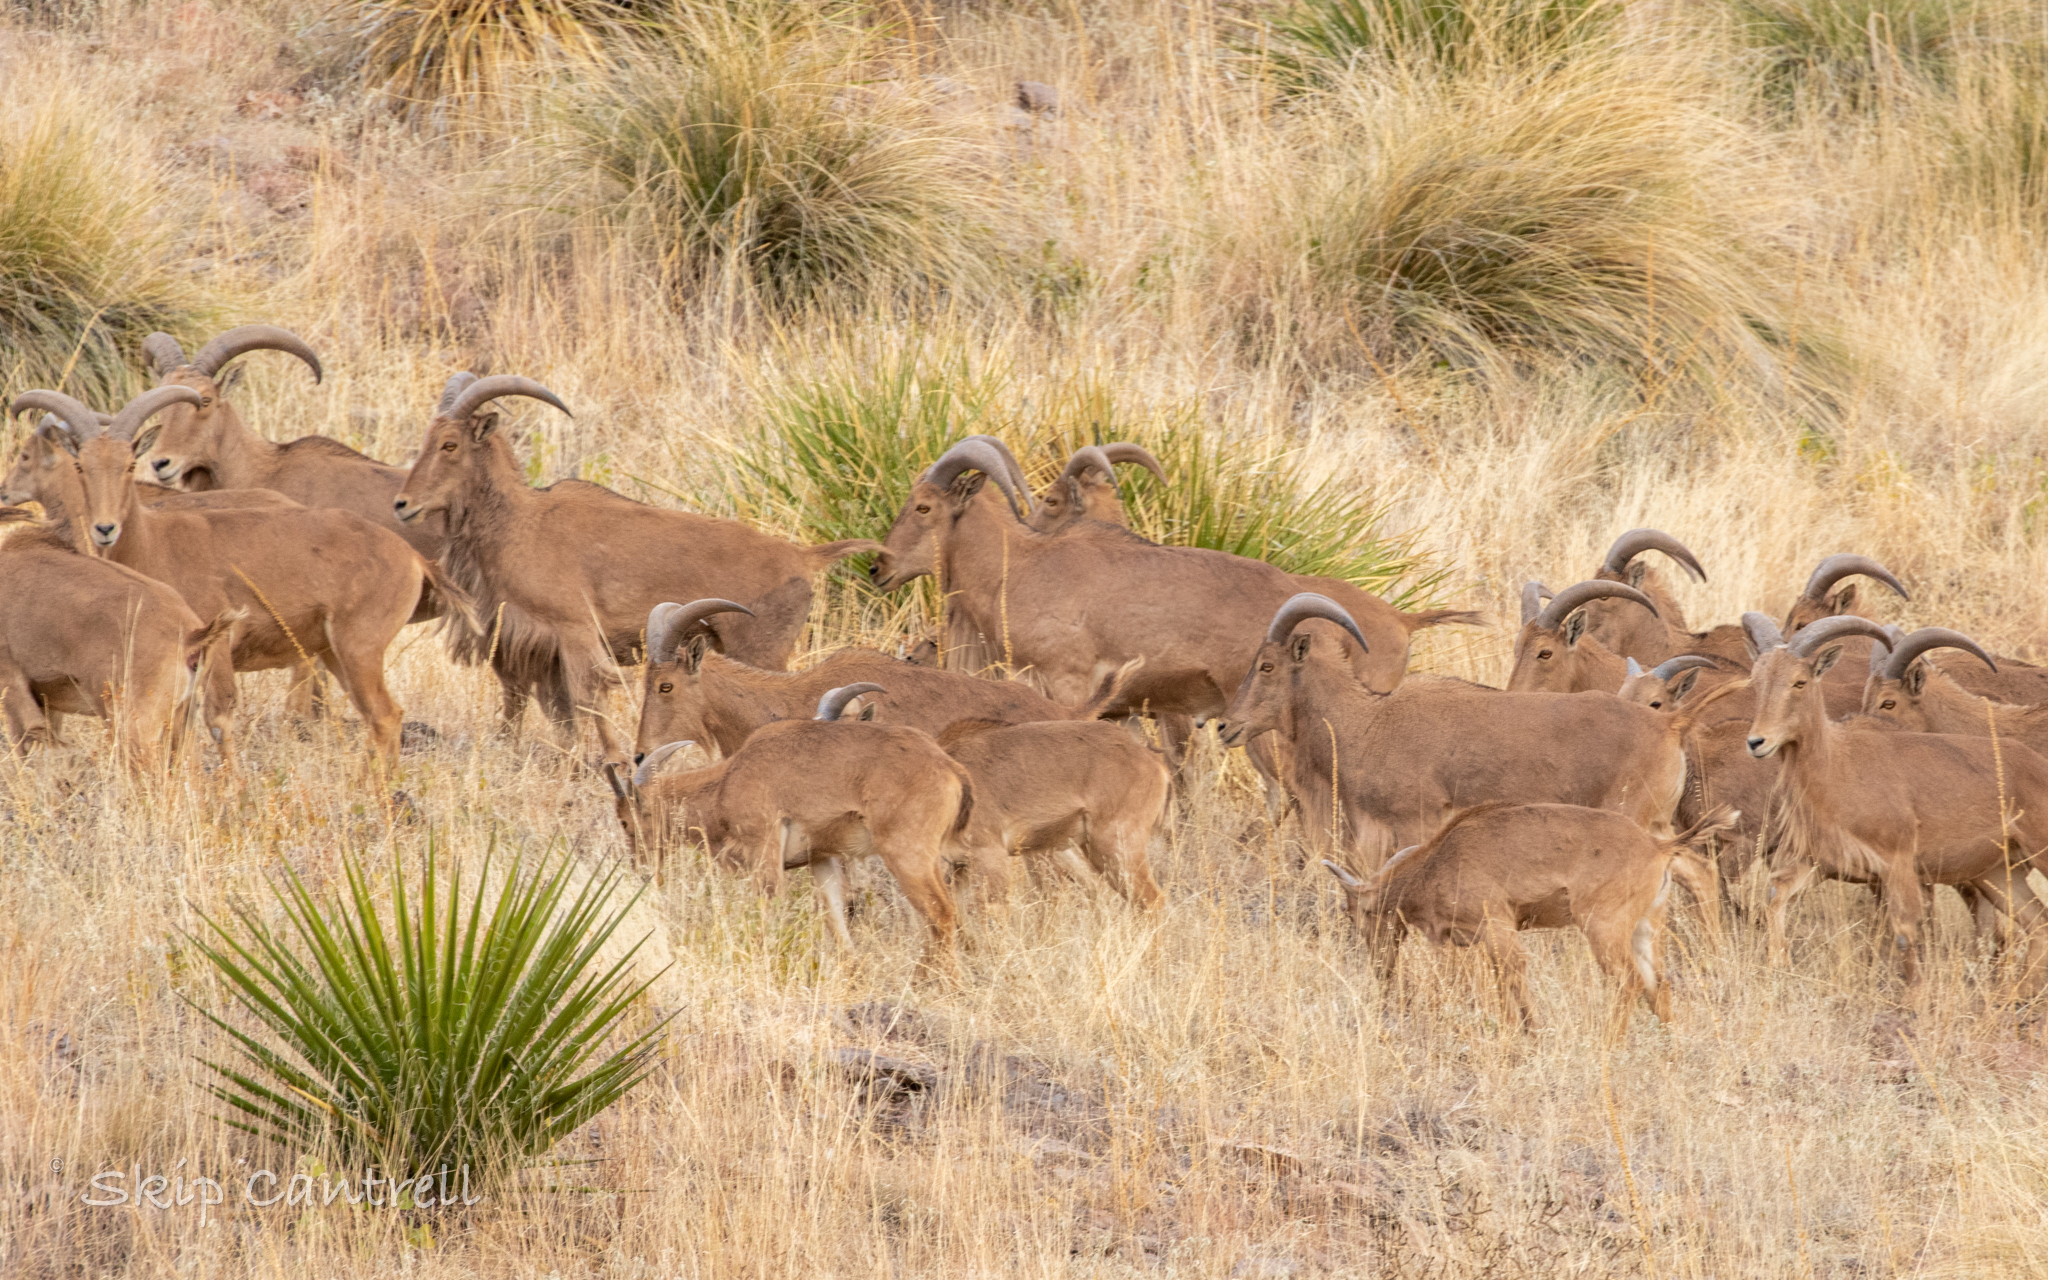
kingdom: Animalia
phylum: Chordata
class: Mammalia
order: Artiodactyla
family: Bovidae
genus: Ammotragus
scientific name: Ammotragus lervia
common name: Barbary sheep
